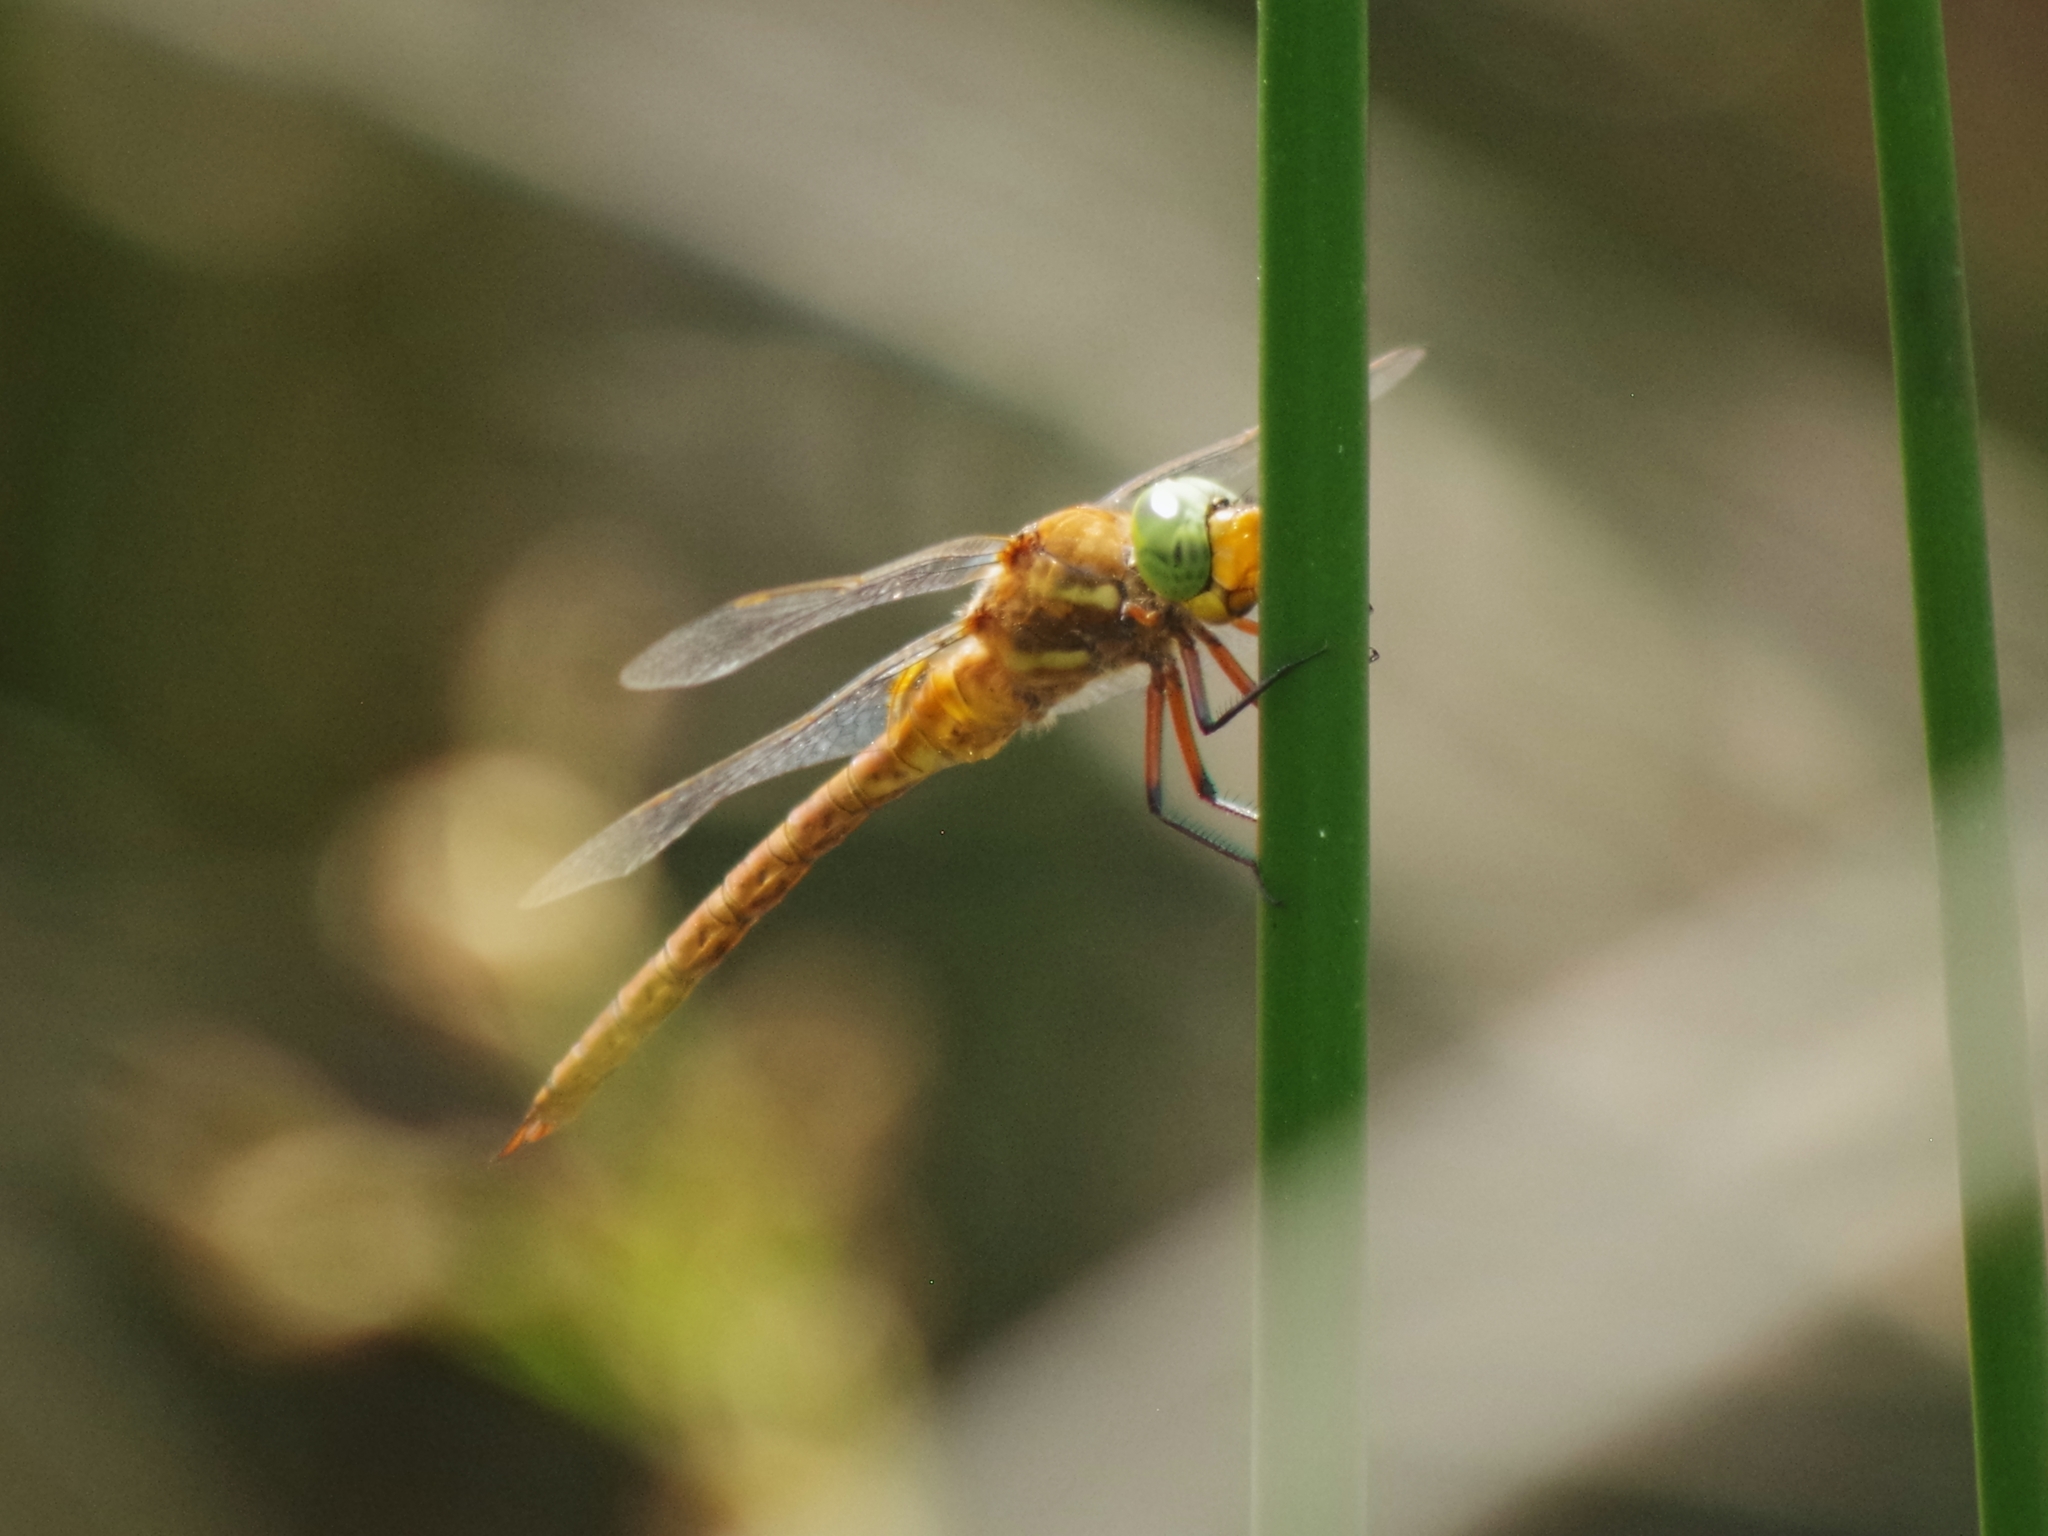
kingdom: Animalia
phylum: Arthropoda
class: Insecta
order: Odonata
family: Aeshnidae
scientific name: Aeshnidae
